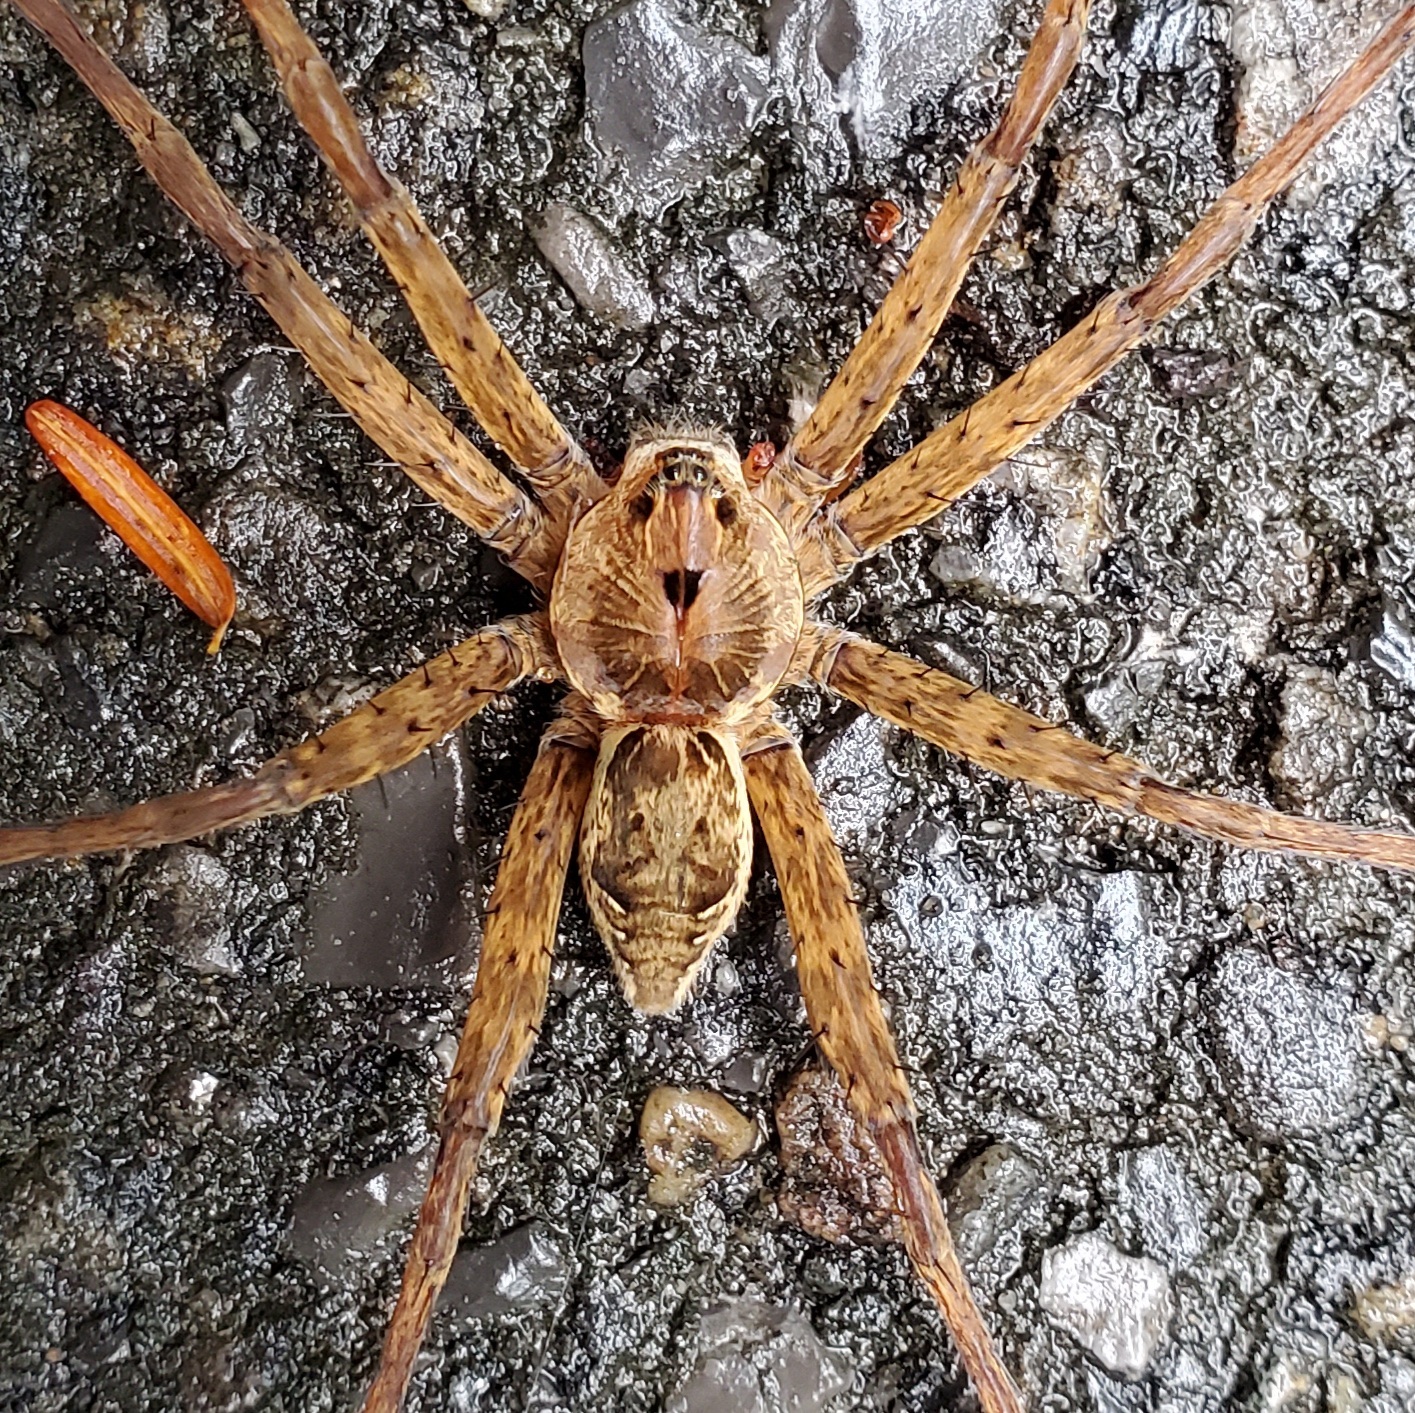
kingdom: Animalia
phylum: Arthropoda
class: Arachnida
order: Araneae
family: Pisauridae
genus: Dolomedes
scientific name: Dolomedes vittatus
